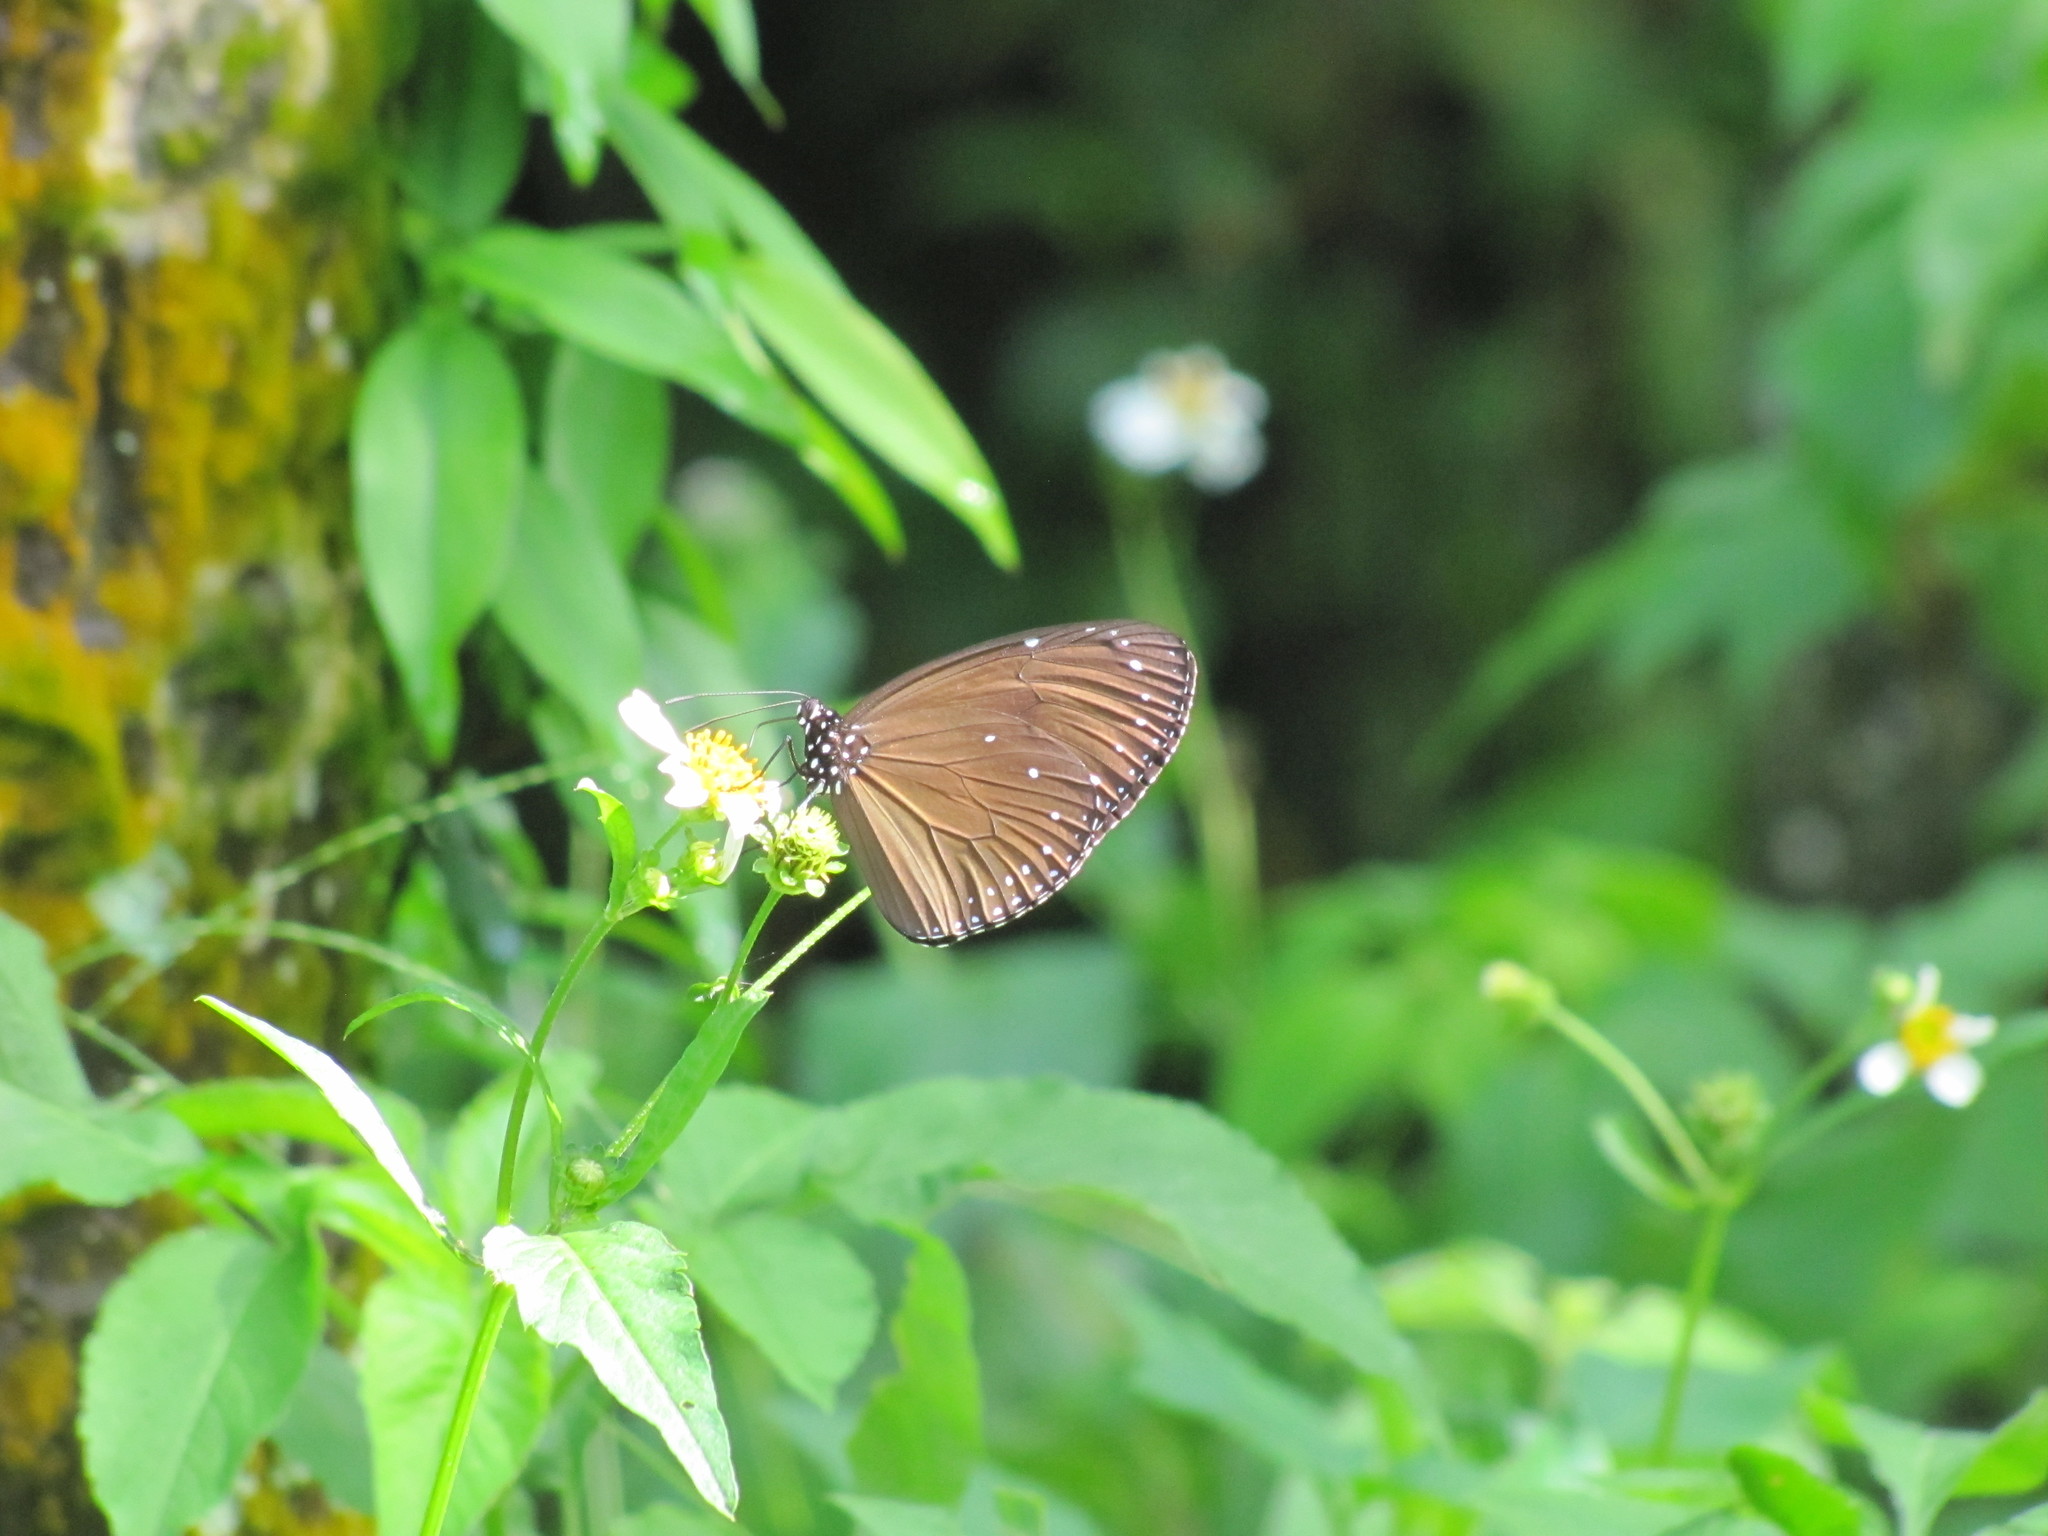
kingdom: Animalia
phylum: Arthropoda
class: Insecta
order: Lepidoptera
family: Nymphalidae
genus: Euploea
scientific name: Euploea tulliolus
